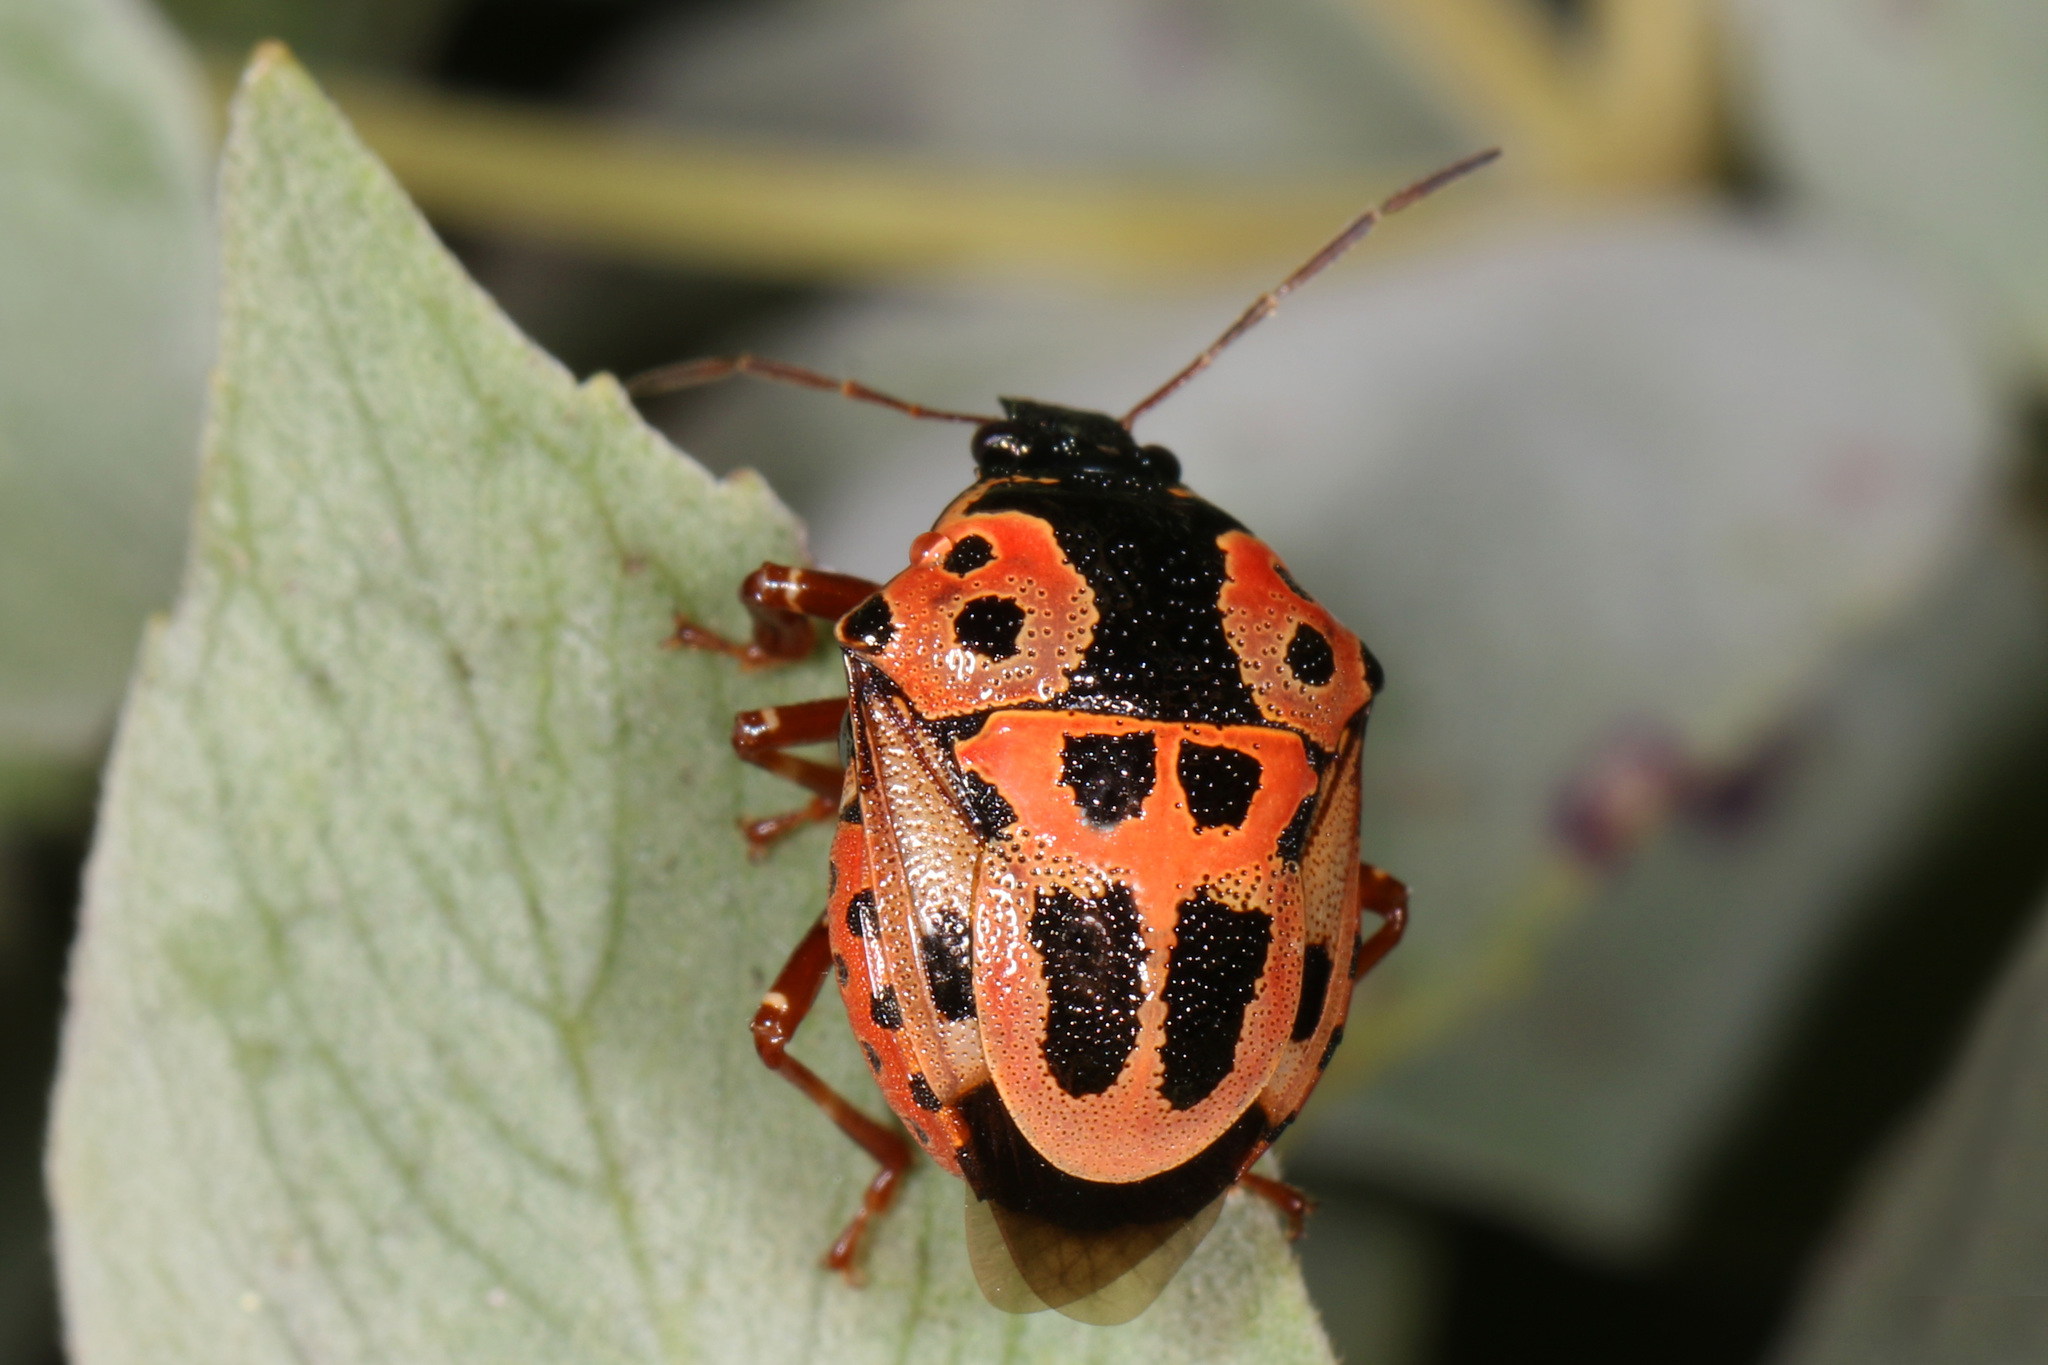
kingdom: Animalia
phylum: Arthropoda
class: Insecta
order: Hemiptera
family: Pentatomidae
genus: Stiretrus
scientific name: Stiretrus anchorago
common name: Anchor stink bug
